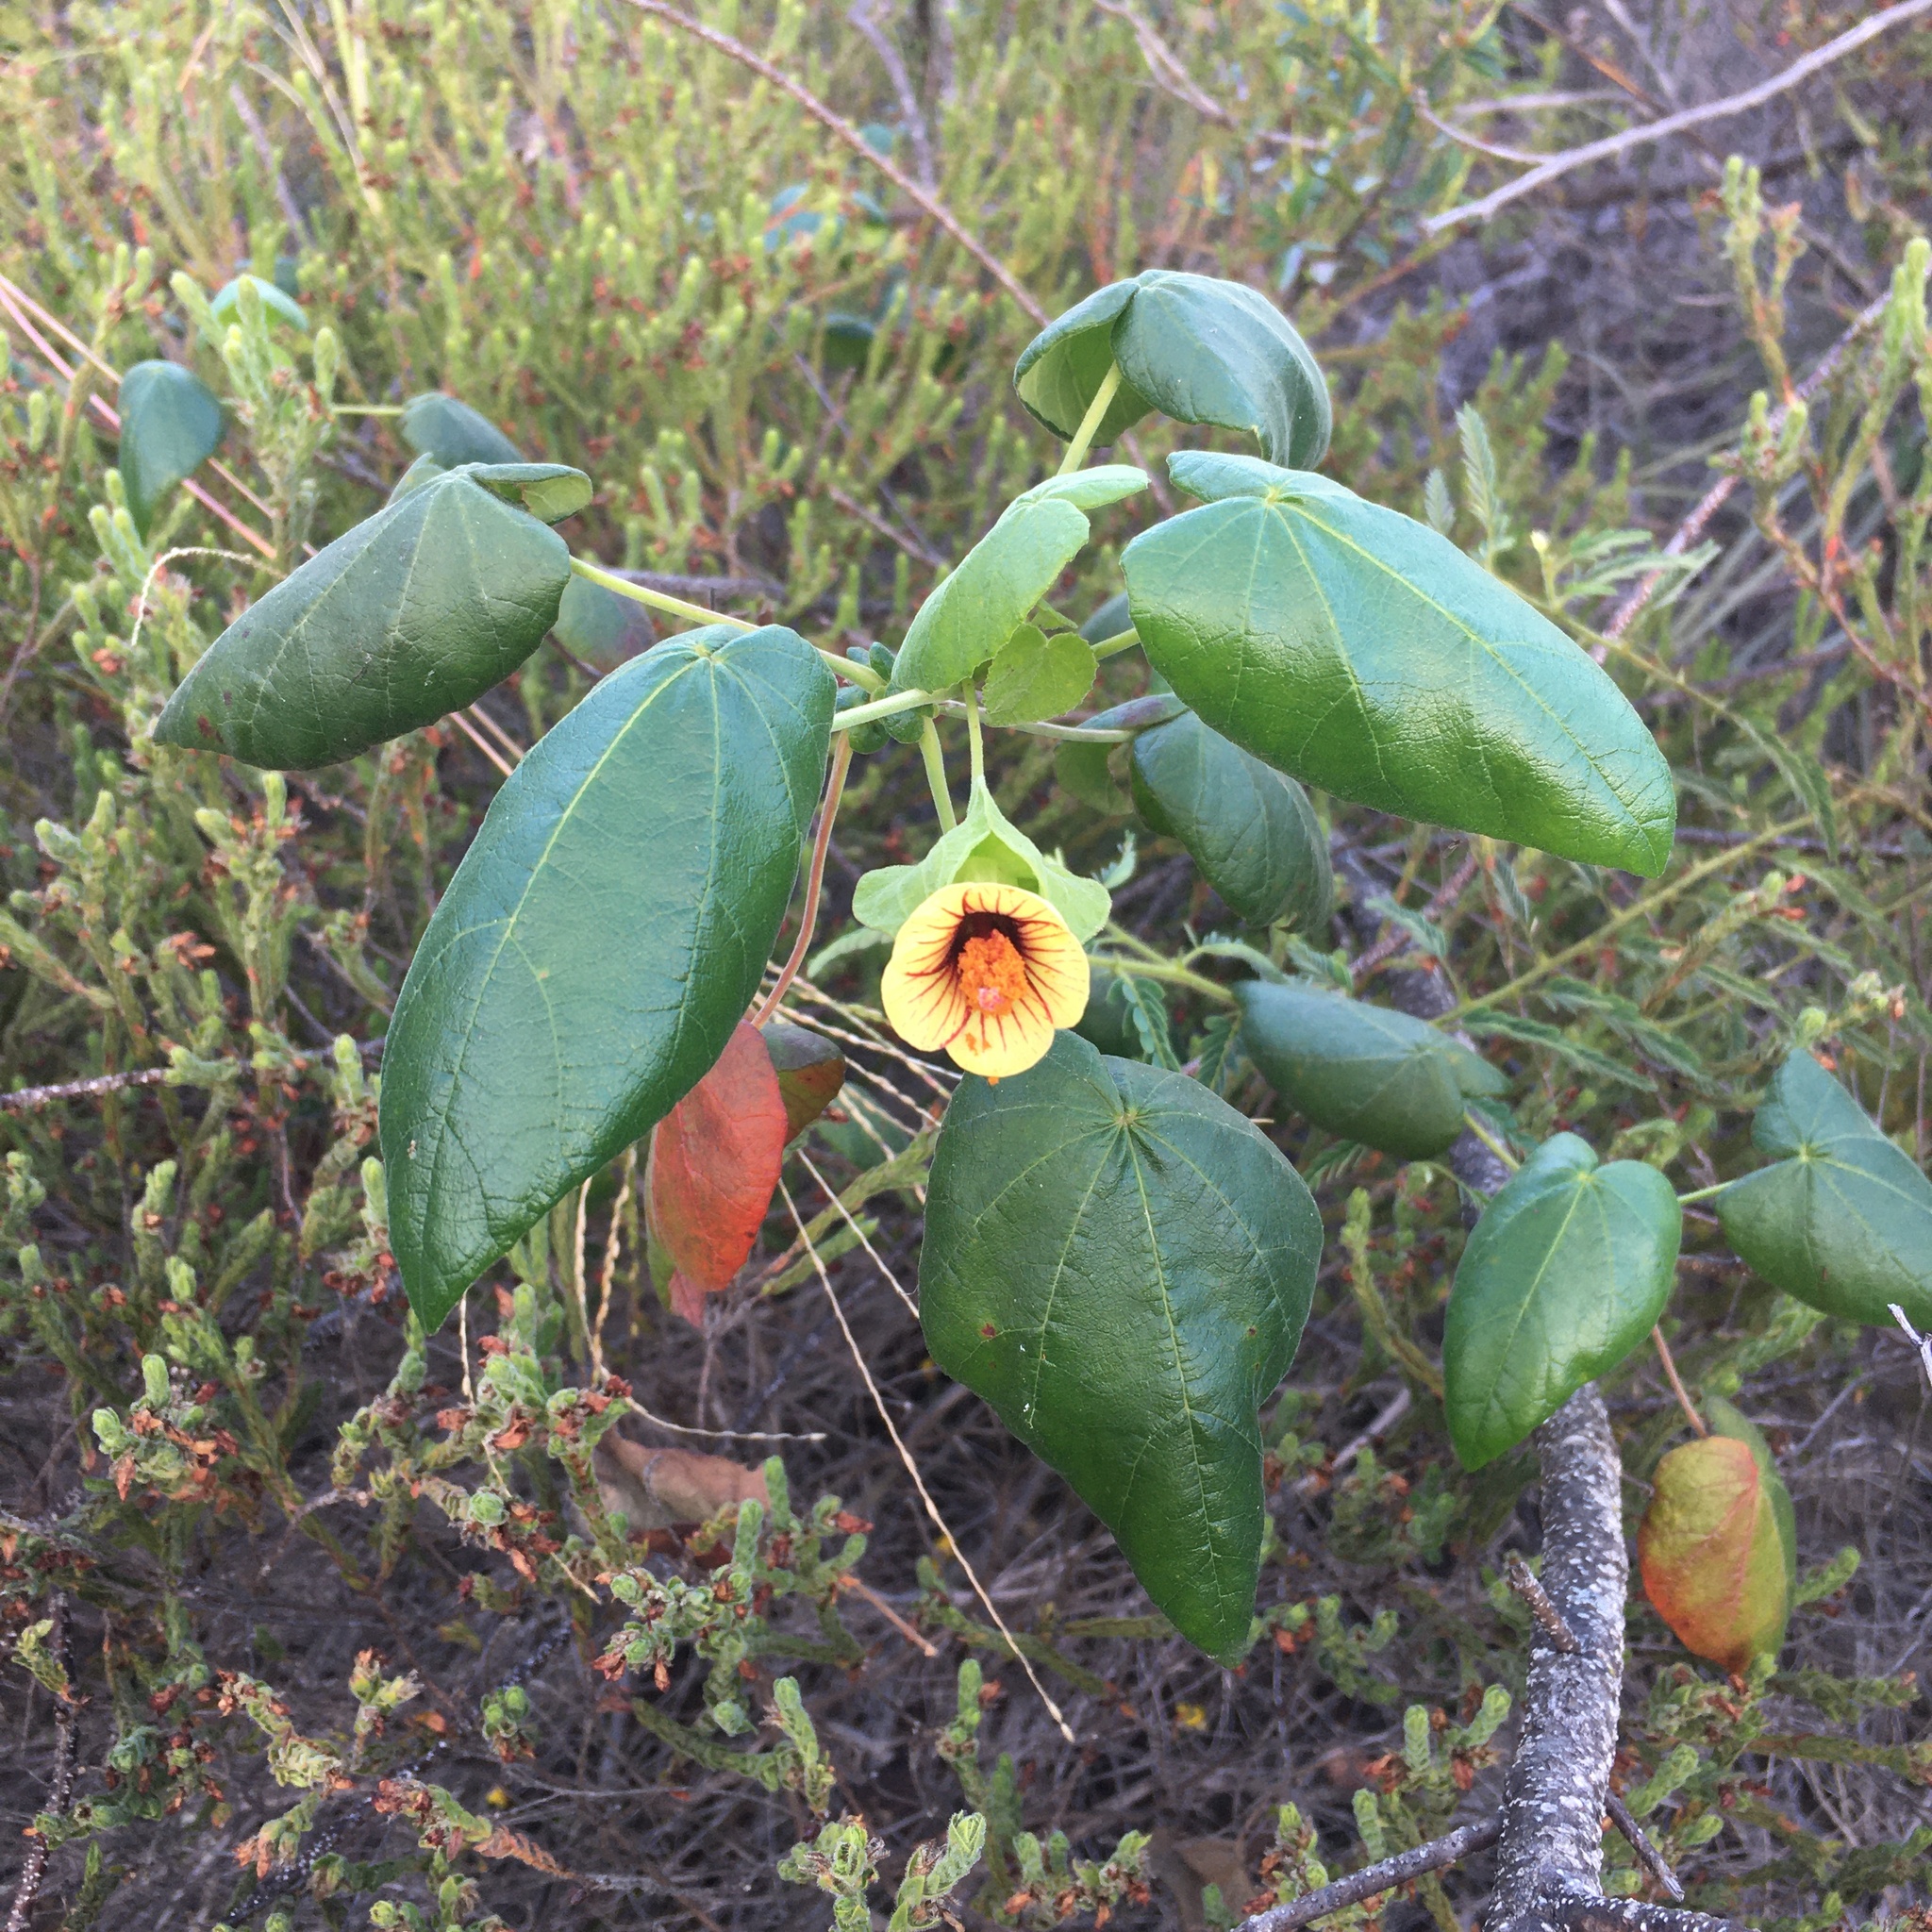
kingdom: Plantae
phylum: Tracheophyta
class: Magnoliopsida
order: Malvales
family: Malvaceae
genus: Pavonia
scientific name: Pavonia grazielae
